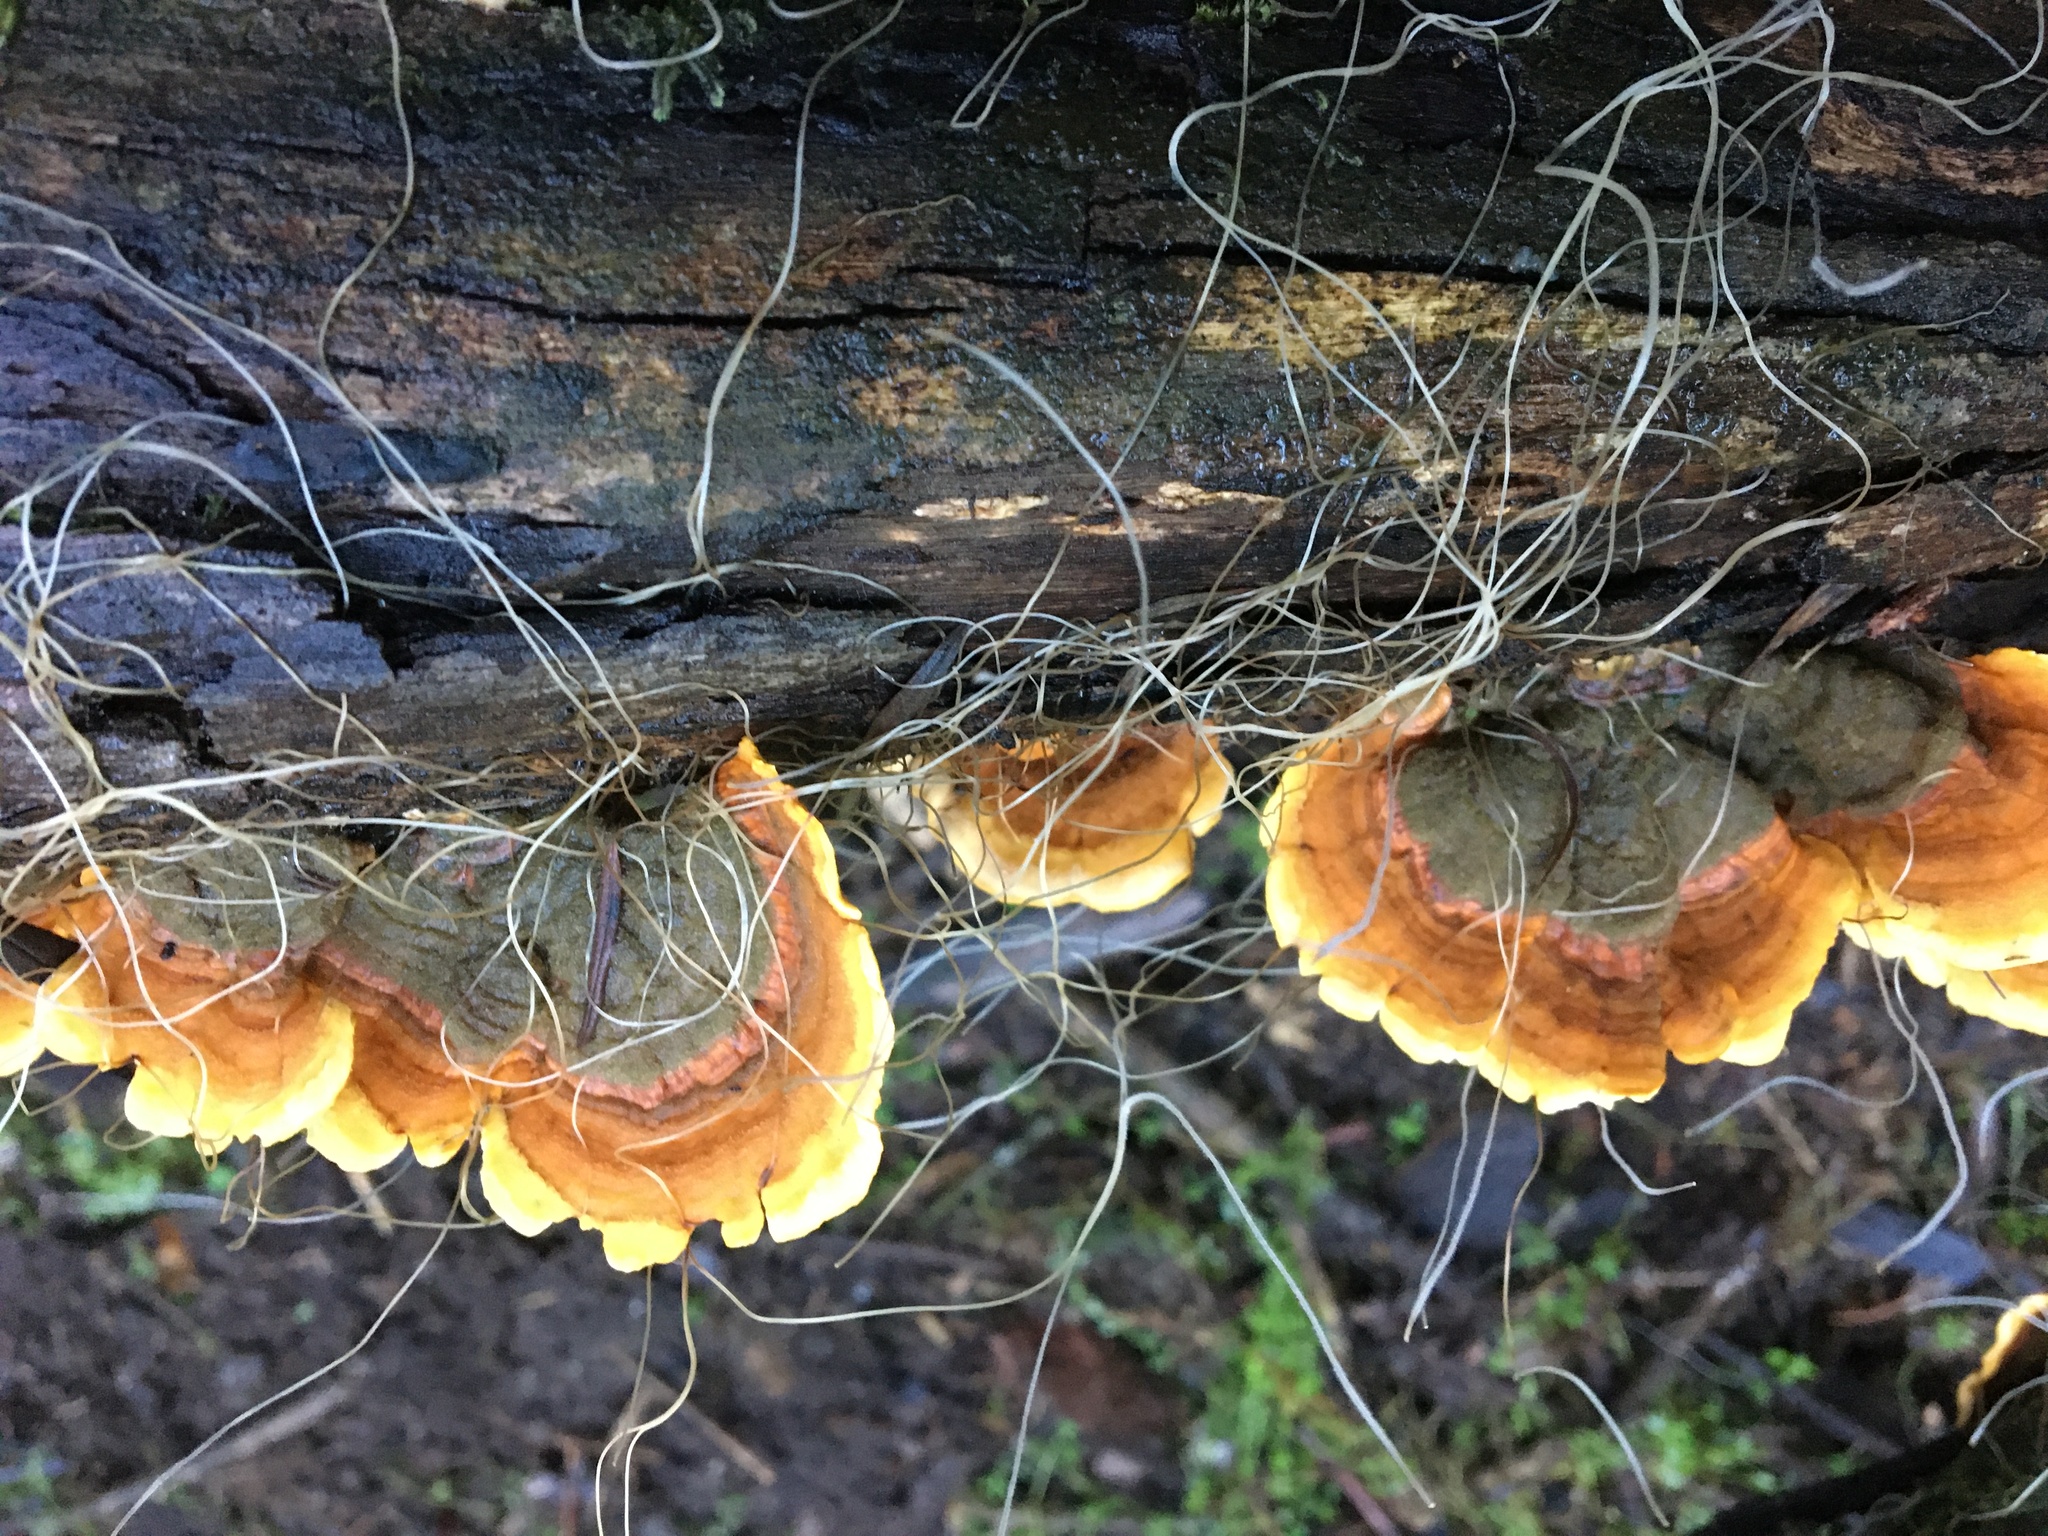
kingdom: Fungi
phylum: Basidiomycota
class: Agaricomycetes
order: Russulales
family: Stereaceae
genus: Stereum
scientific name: Stereum ostrea
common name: False turkeytail
